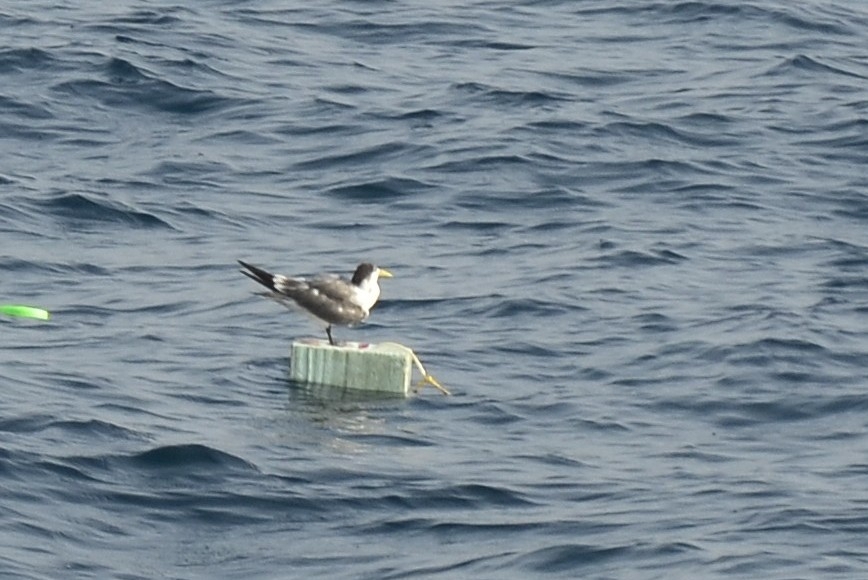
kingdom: Animalia
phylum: Chordata
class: Aves
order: Charadriiformes
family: Laridae
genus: Thalasseus
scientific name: Thalasseus bergii
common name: Greater crested tern
